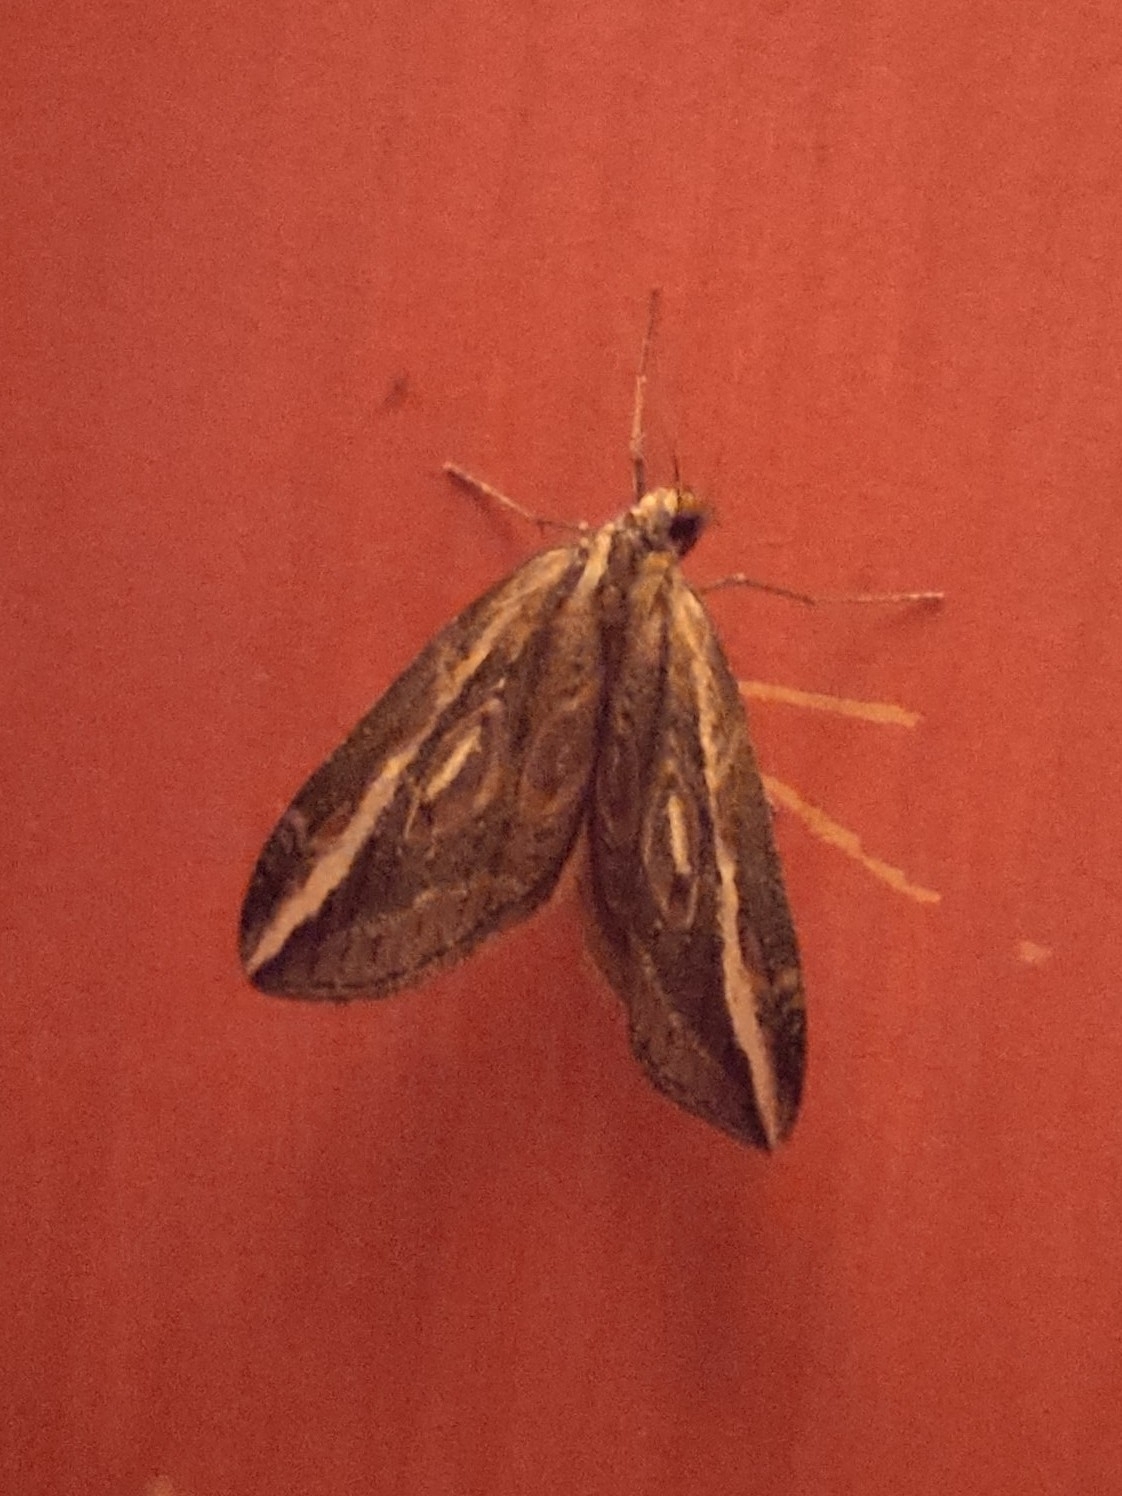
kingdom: Animalia
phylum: Arthropoda
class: Insecta
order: Lepidoptera
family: Geometridae
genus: Chesias
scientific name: Chesias legatella
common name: Streak
